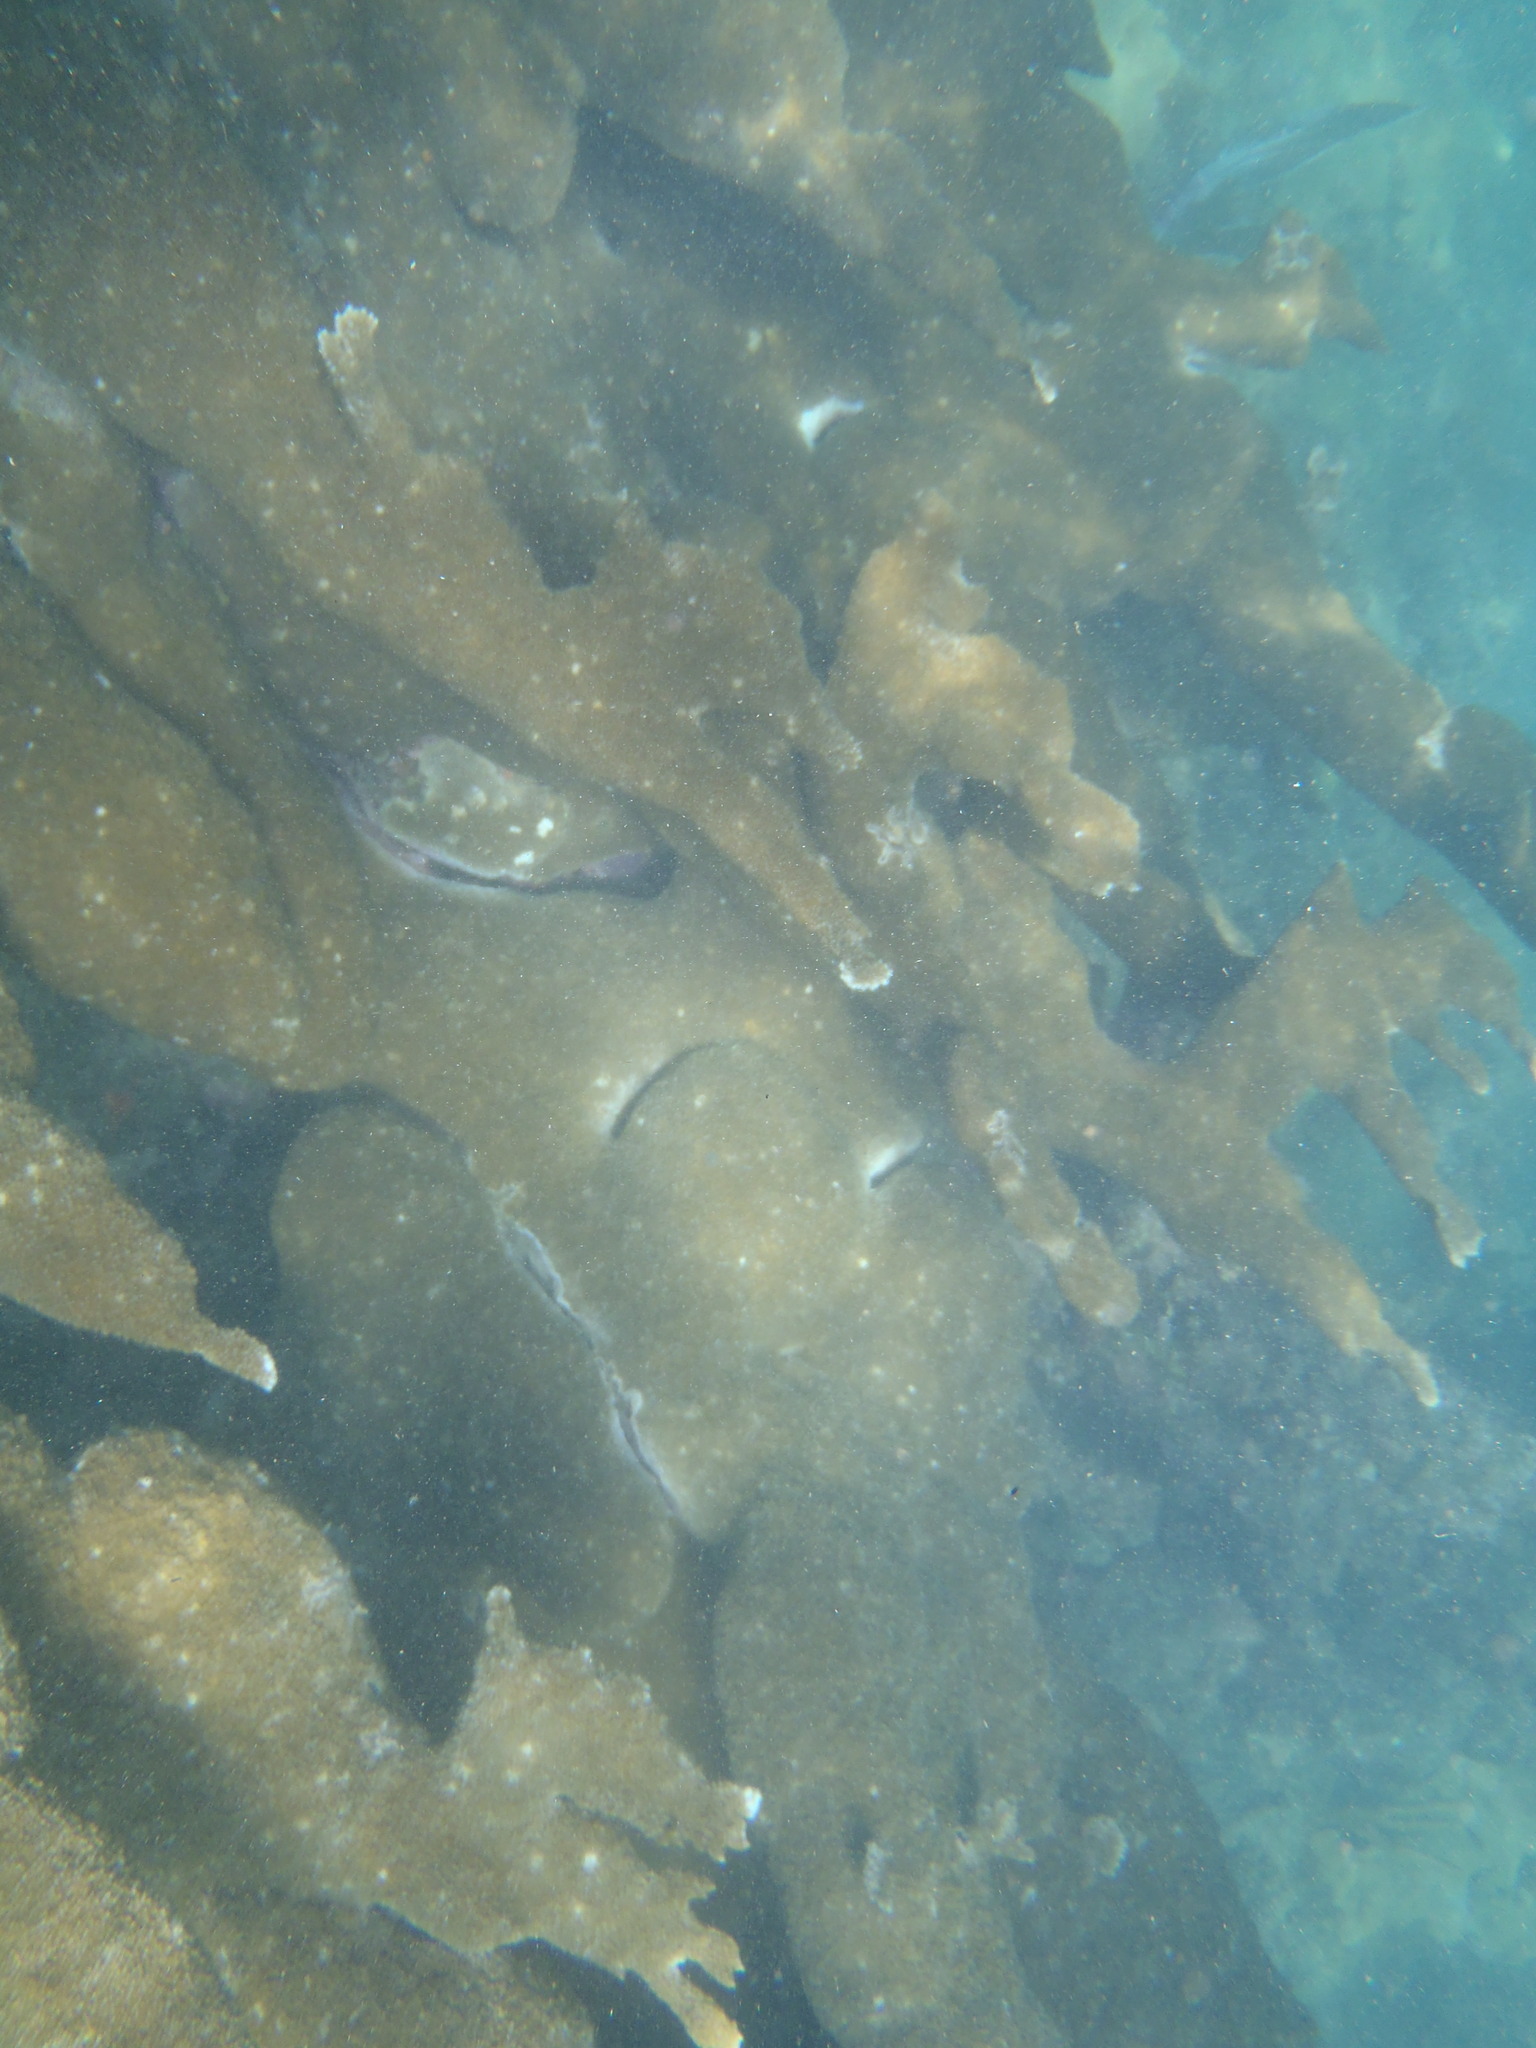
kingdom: Animalia
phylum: Cnidaria
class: Anthozoa
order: Scleractinia
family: Acroporidae
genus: Acropora
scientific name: Acropora palmata
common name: Elkhorn coral
